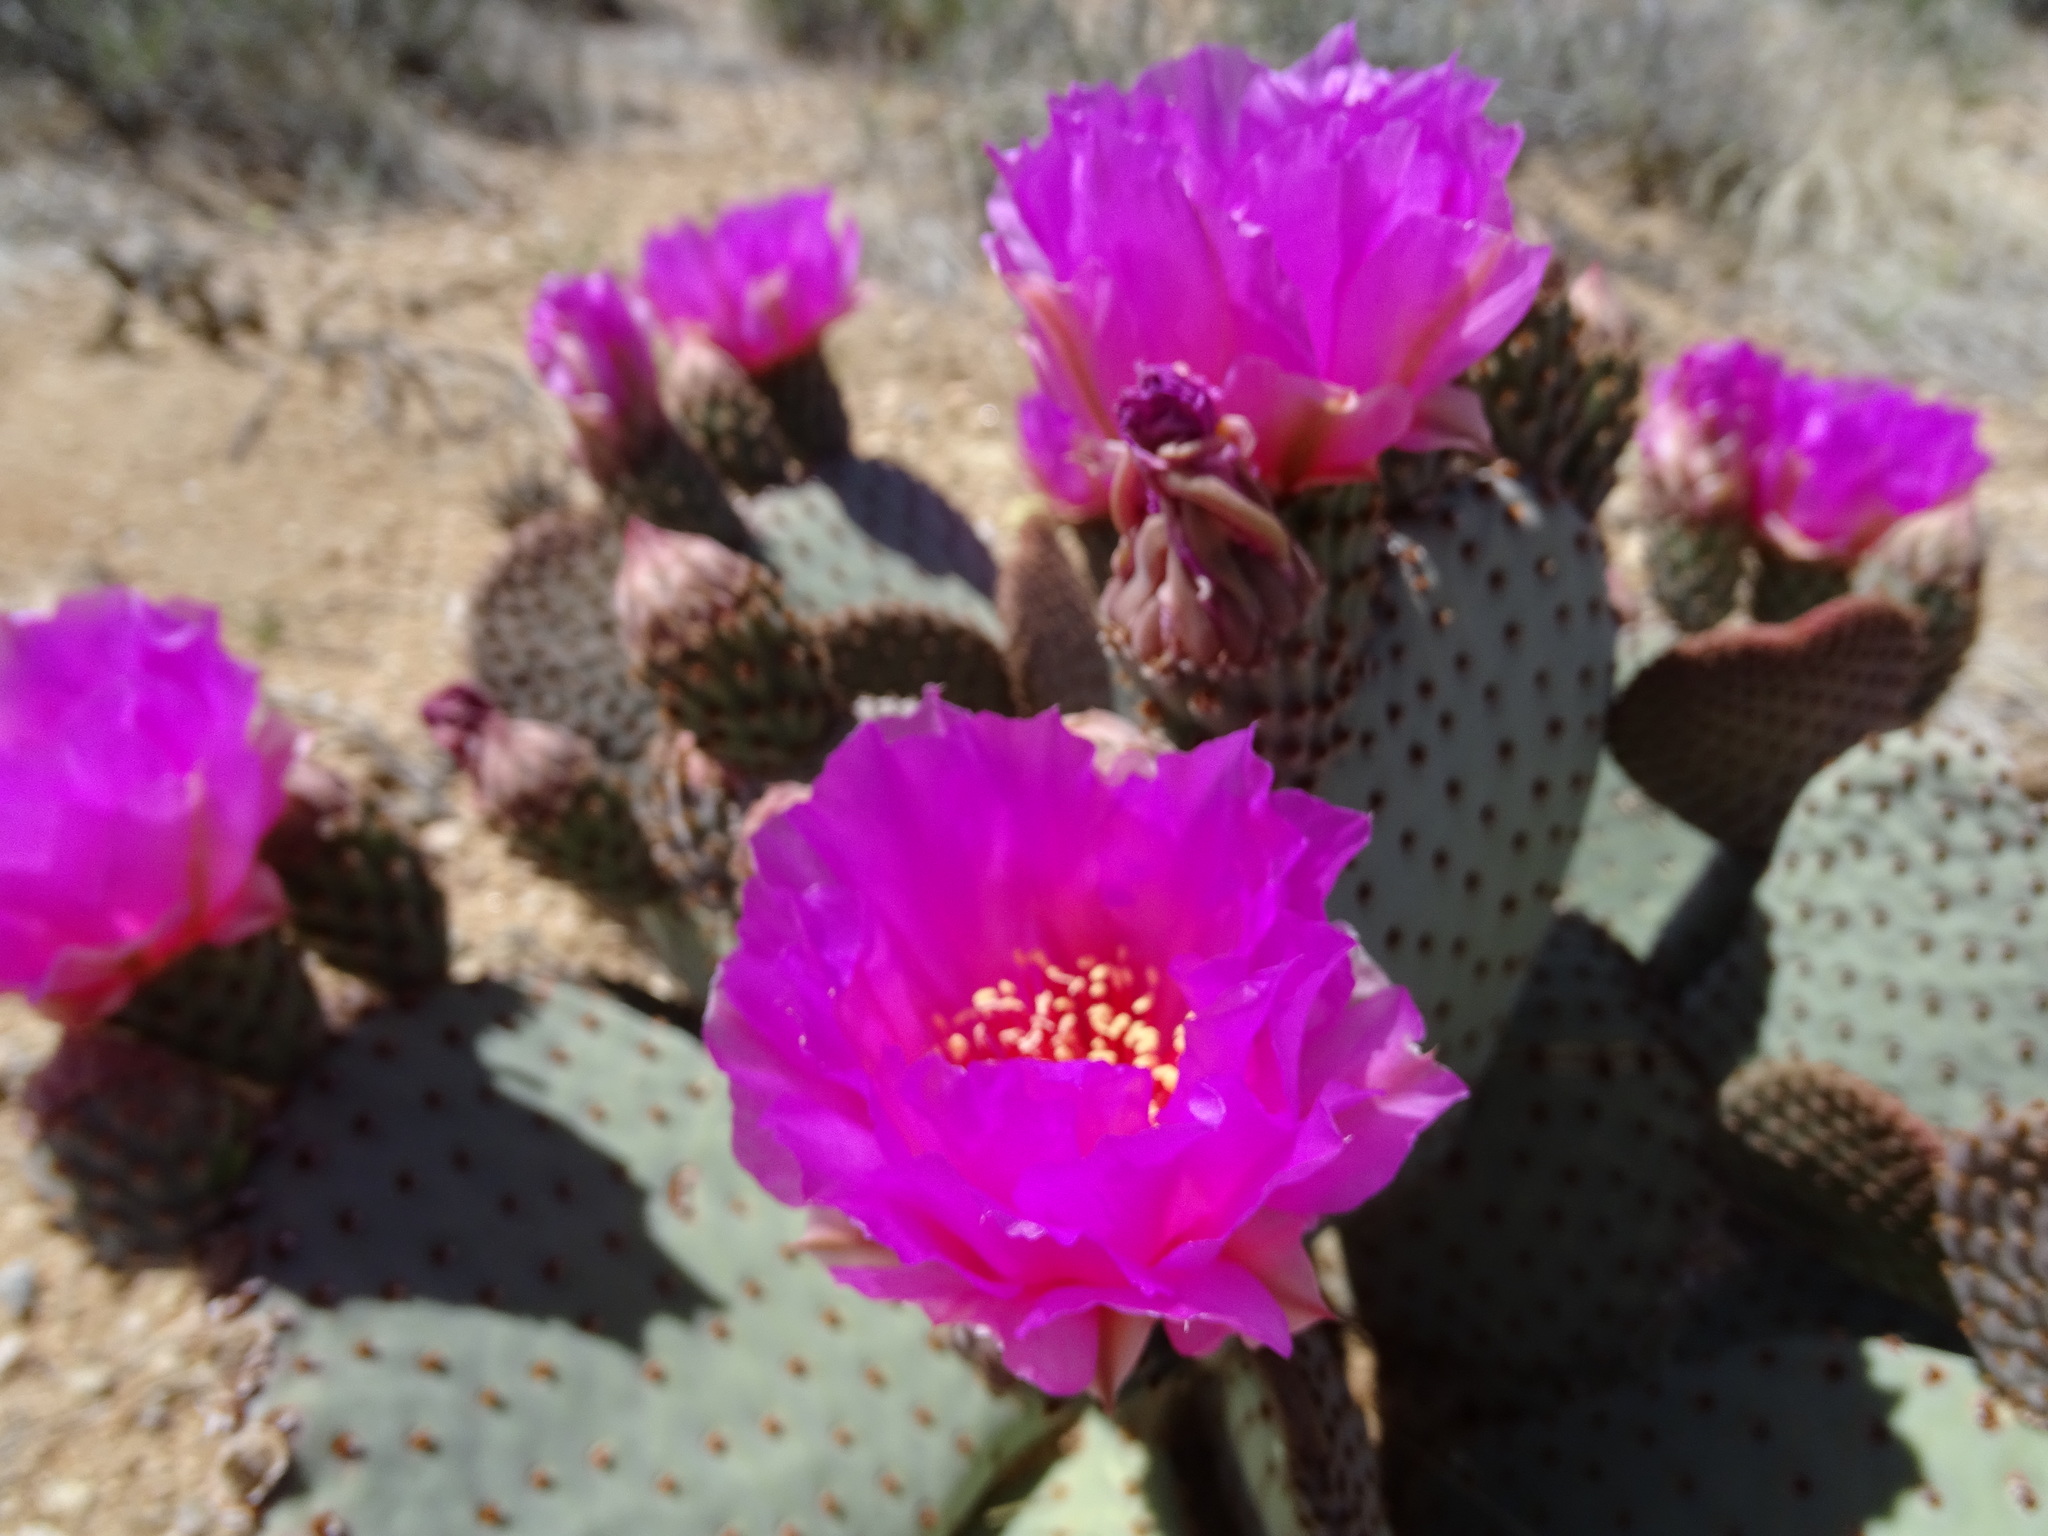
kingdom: Plantae
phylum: Tracheophyta
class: Magnoliopsida
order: Caryophyllales
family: Cactaceae
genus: Opuntia
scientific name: Opuntia basilaris
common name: Beavertail prickly-pear
